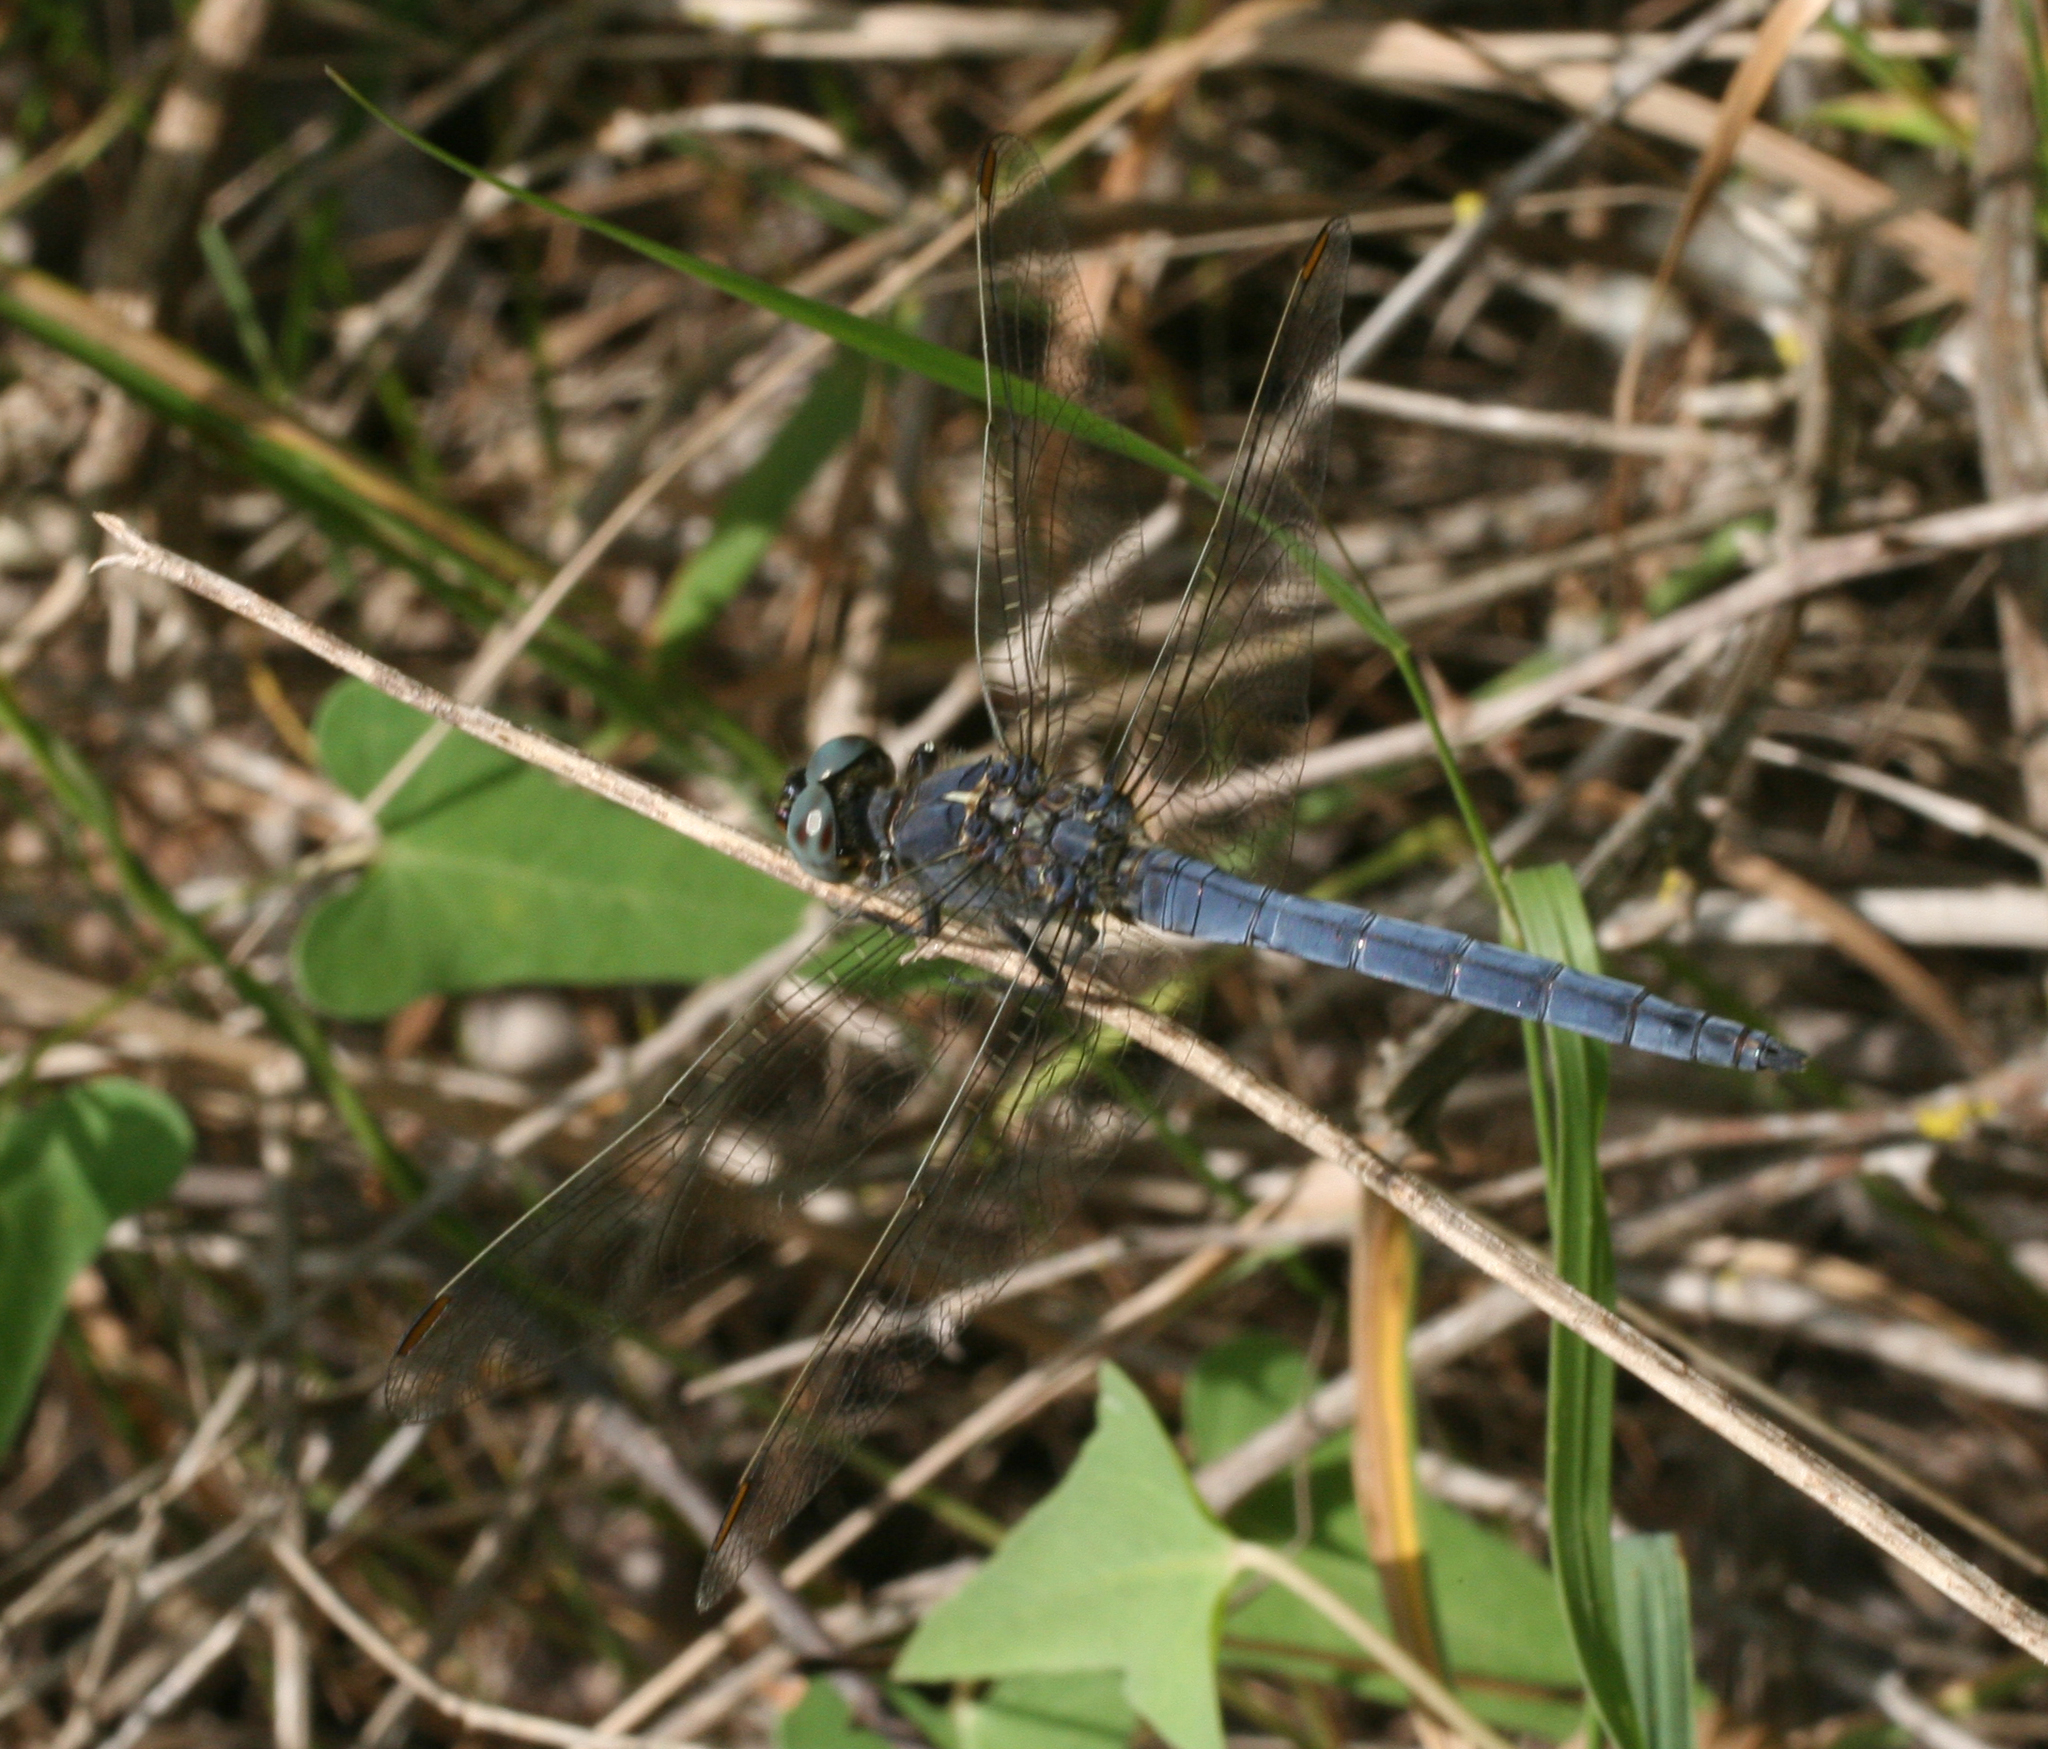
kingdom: Animalia
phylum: Arthropoda
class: Insecta
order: Odonata
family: Libellulidae
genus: Orthetrum
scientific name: Orthetrum coerulescens
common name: Keeled skimmer
